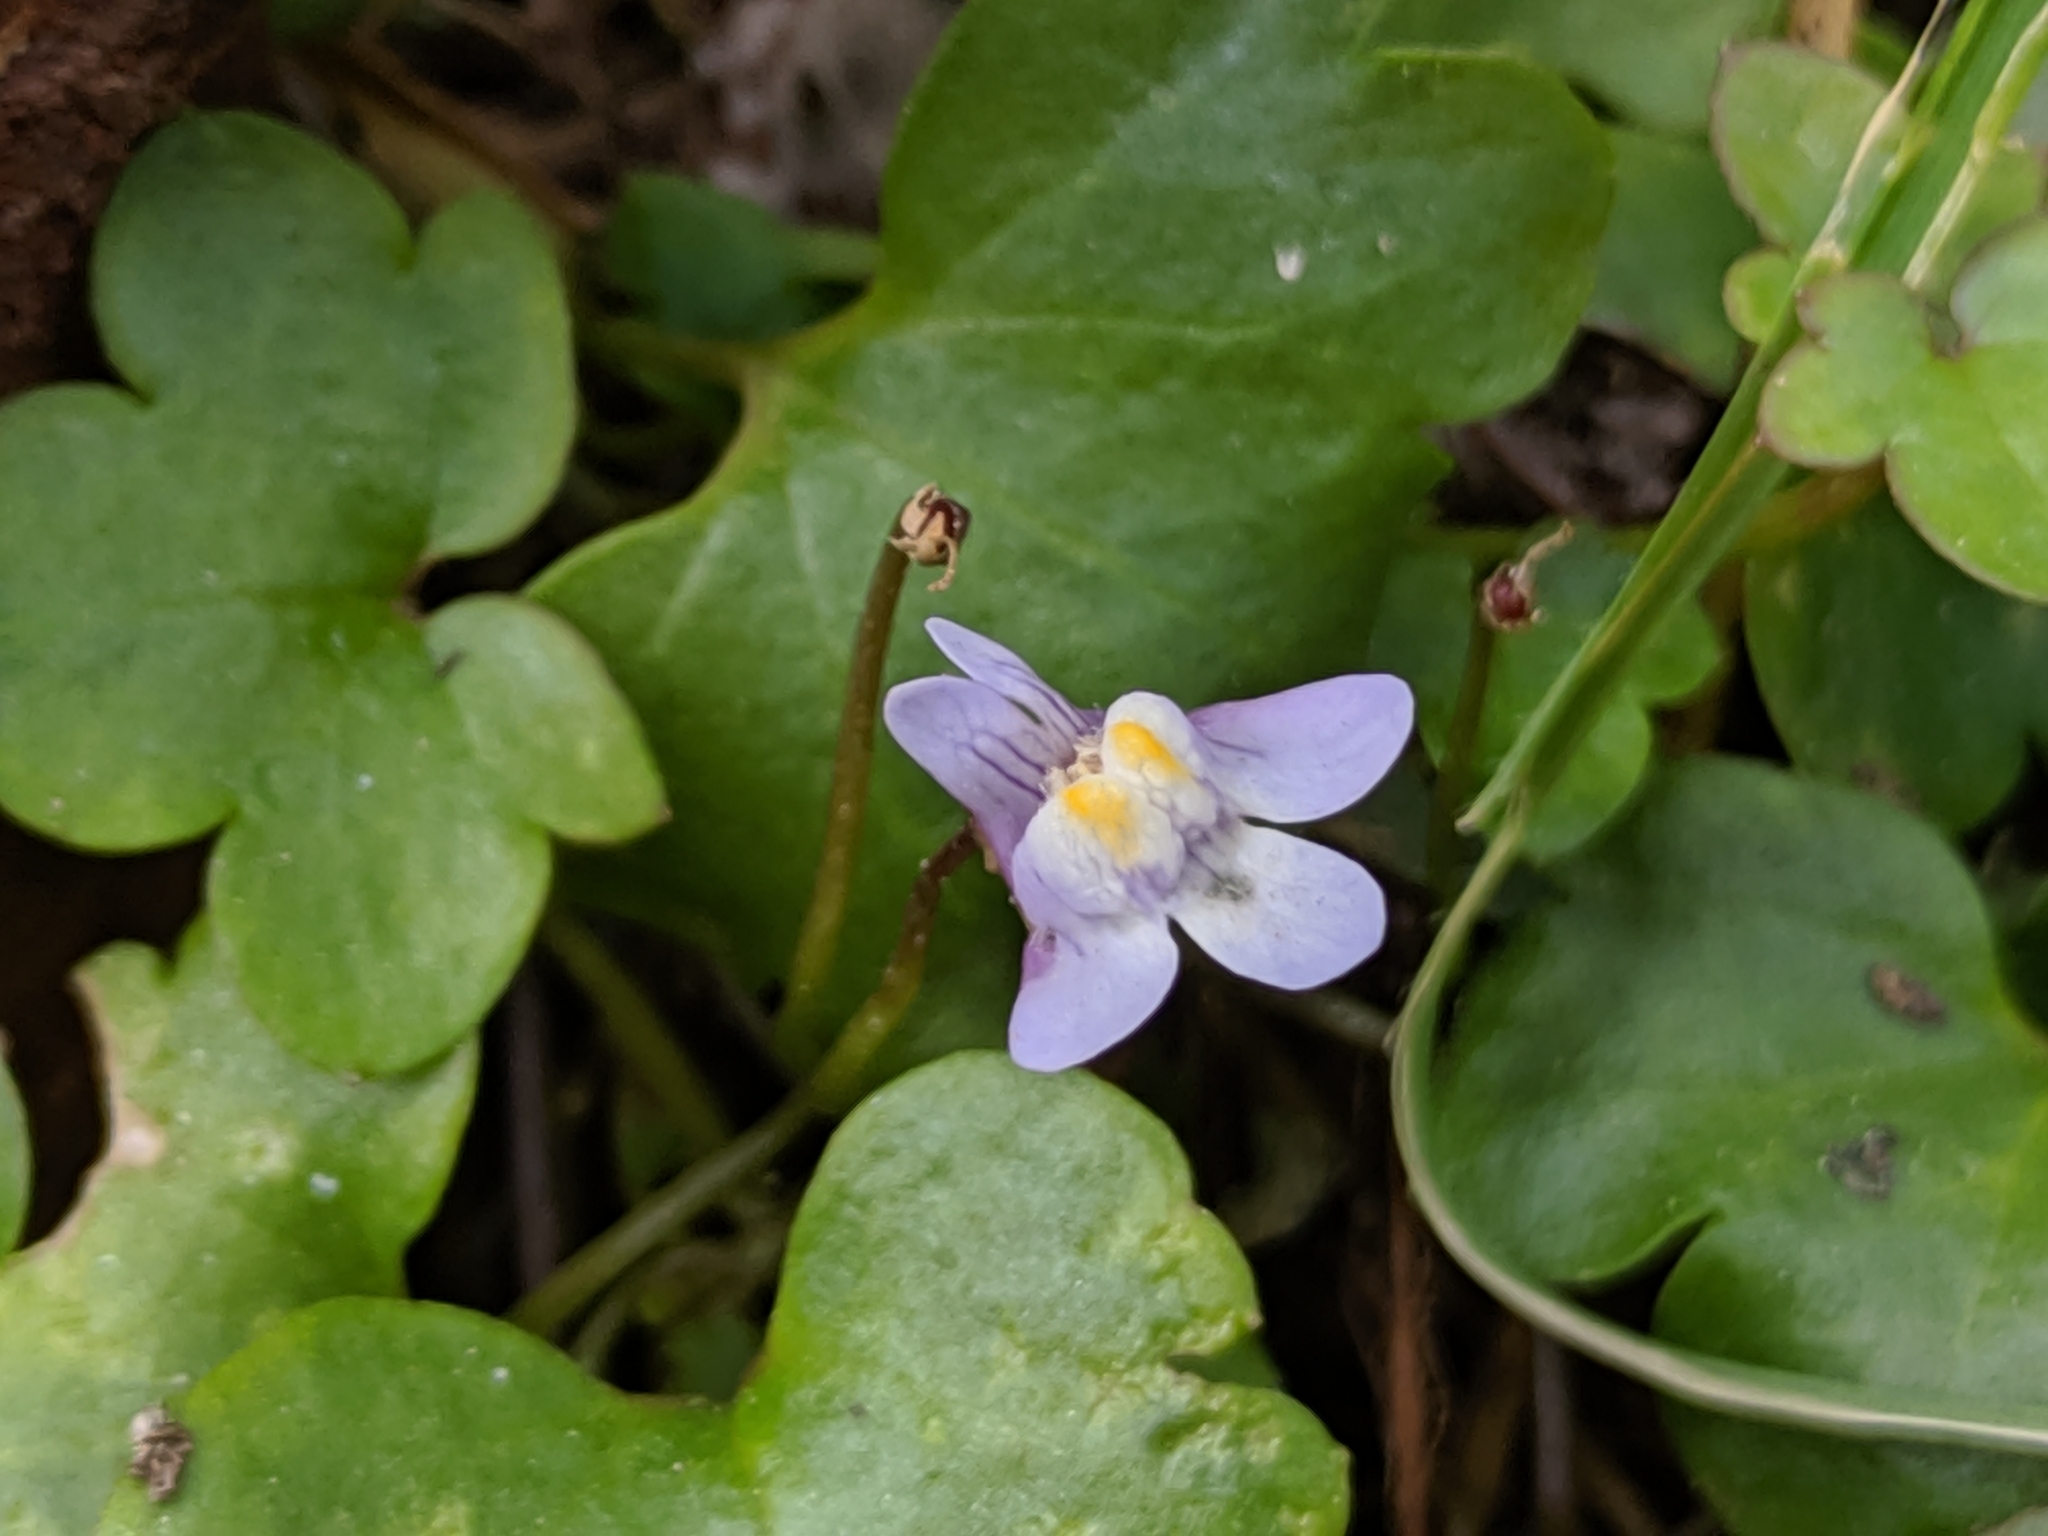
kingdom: Plantae
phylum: Tracheophyta
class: Magnoliopsida
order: Lamiales
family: Plantaginaceae
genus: Cymbalaria
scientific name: Cymbalaria muralis
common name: Ivy-leaved toadflax
